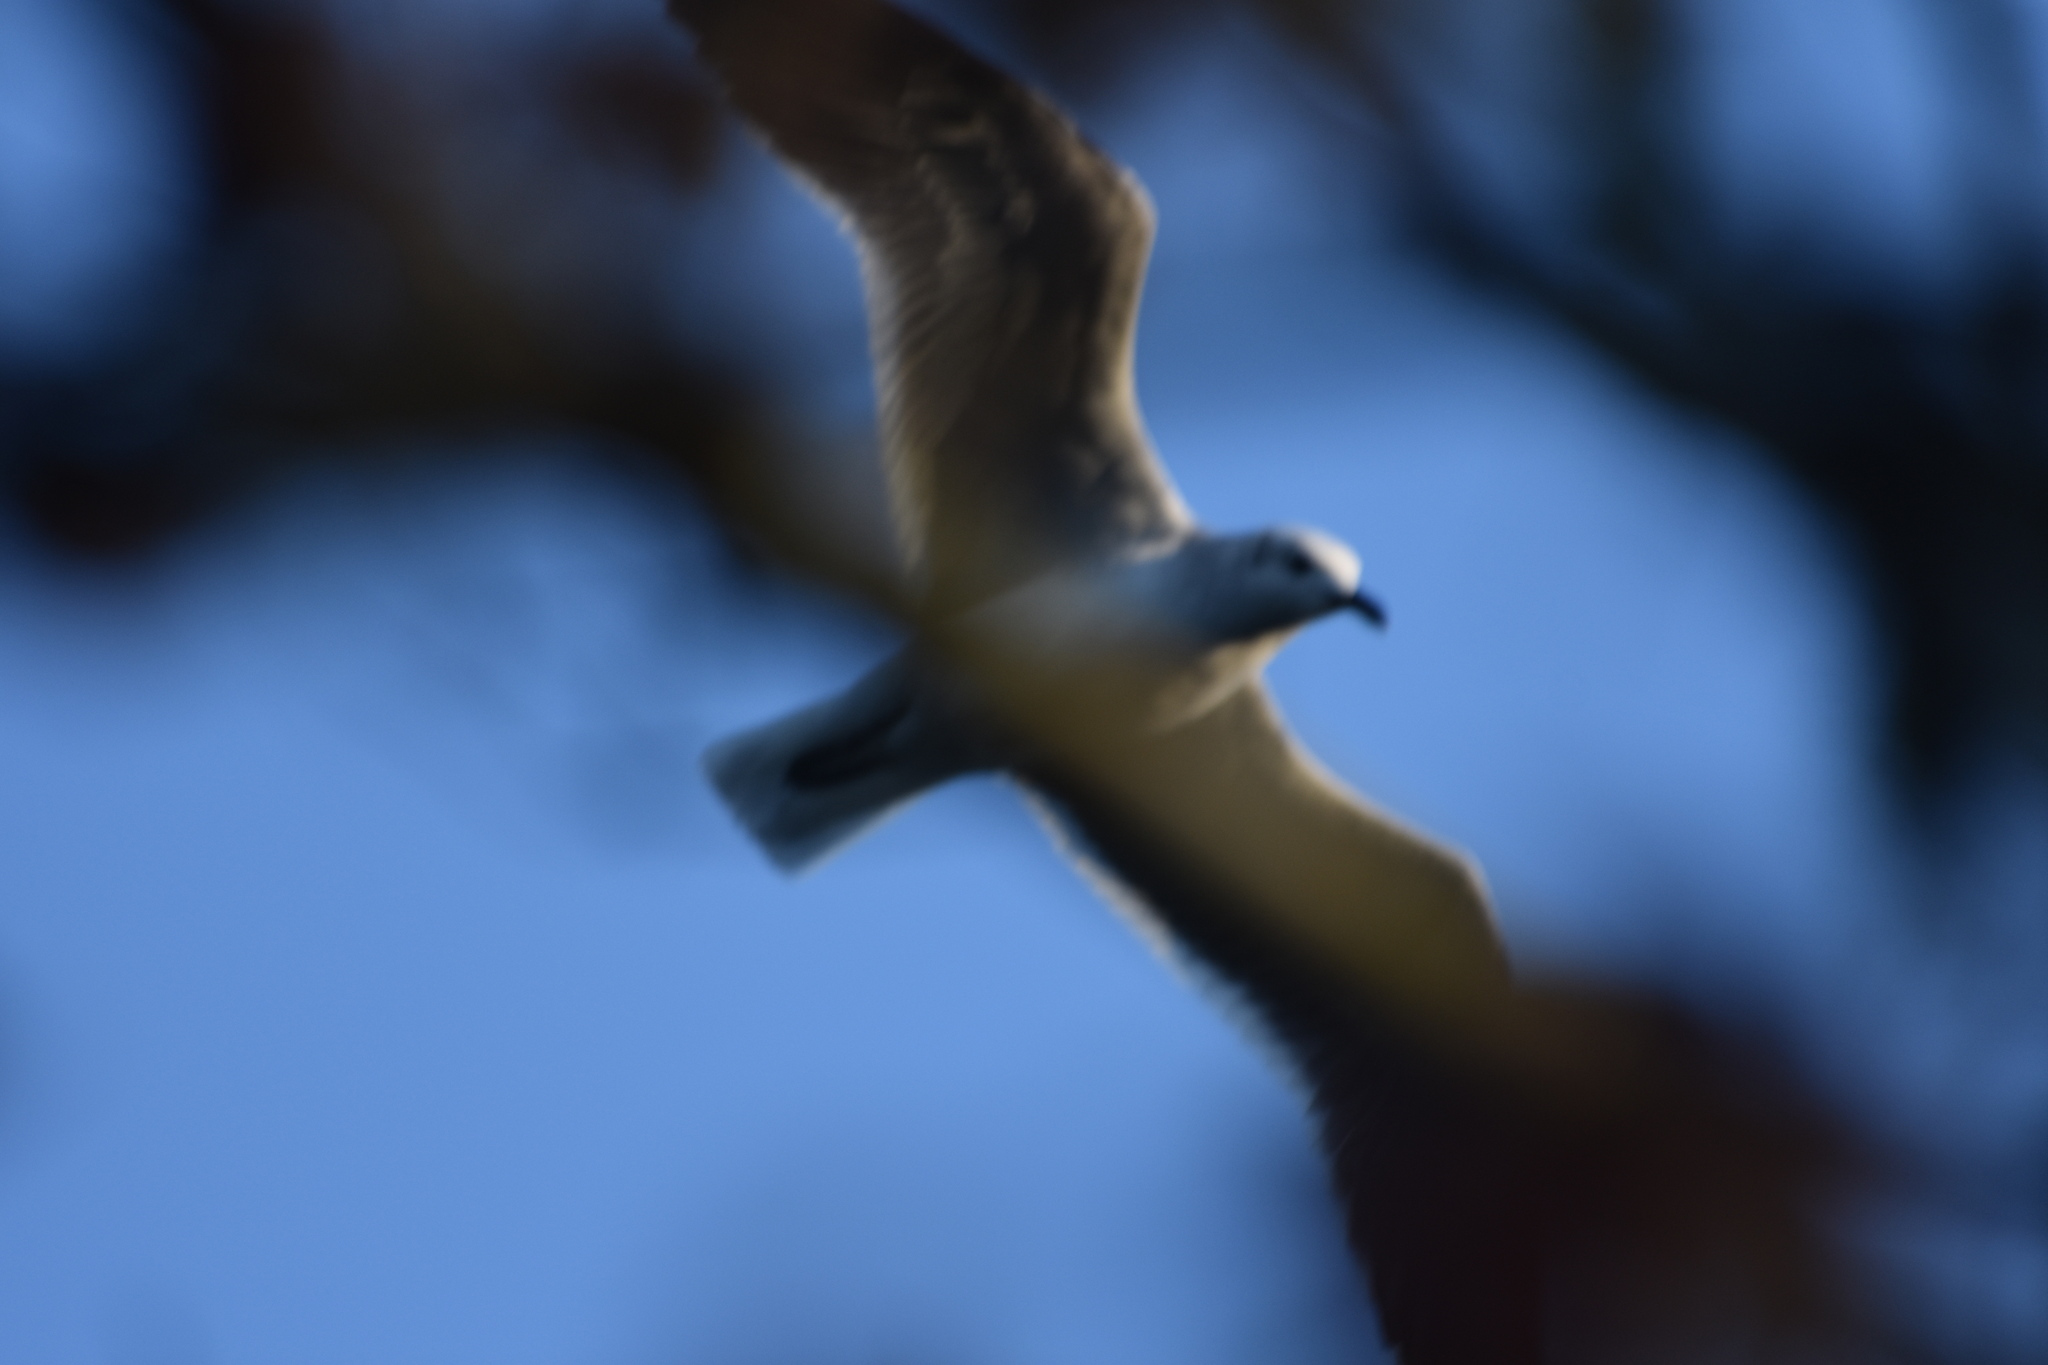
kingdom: Animalia
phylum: Chordata
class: Aves
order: Charadriiformes
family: Laridae
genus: Leucophaeus
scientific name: Leucophaeus atricilla
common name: Laughing gull
